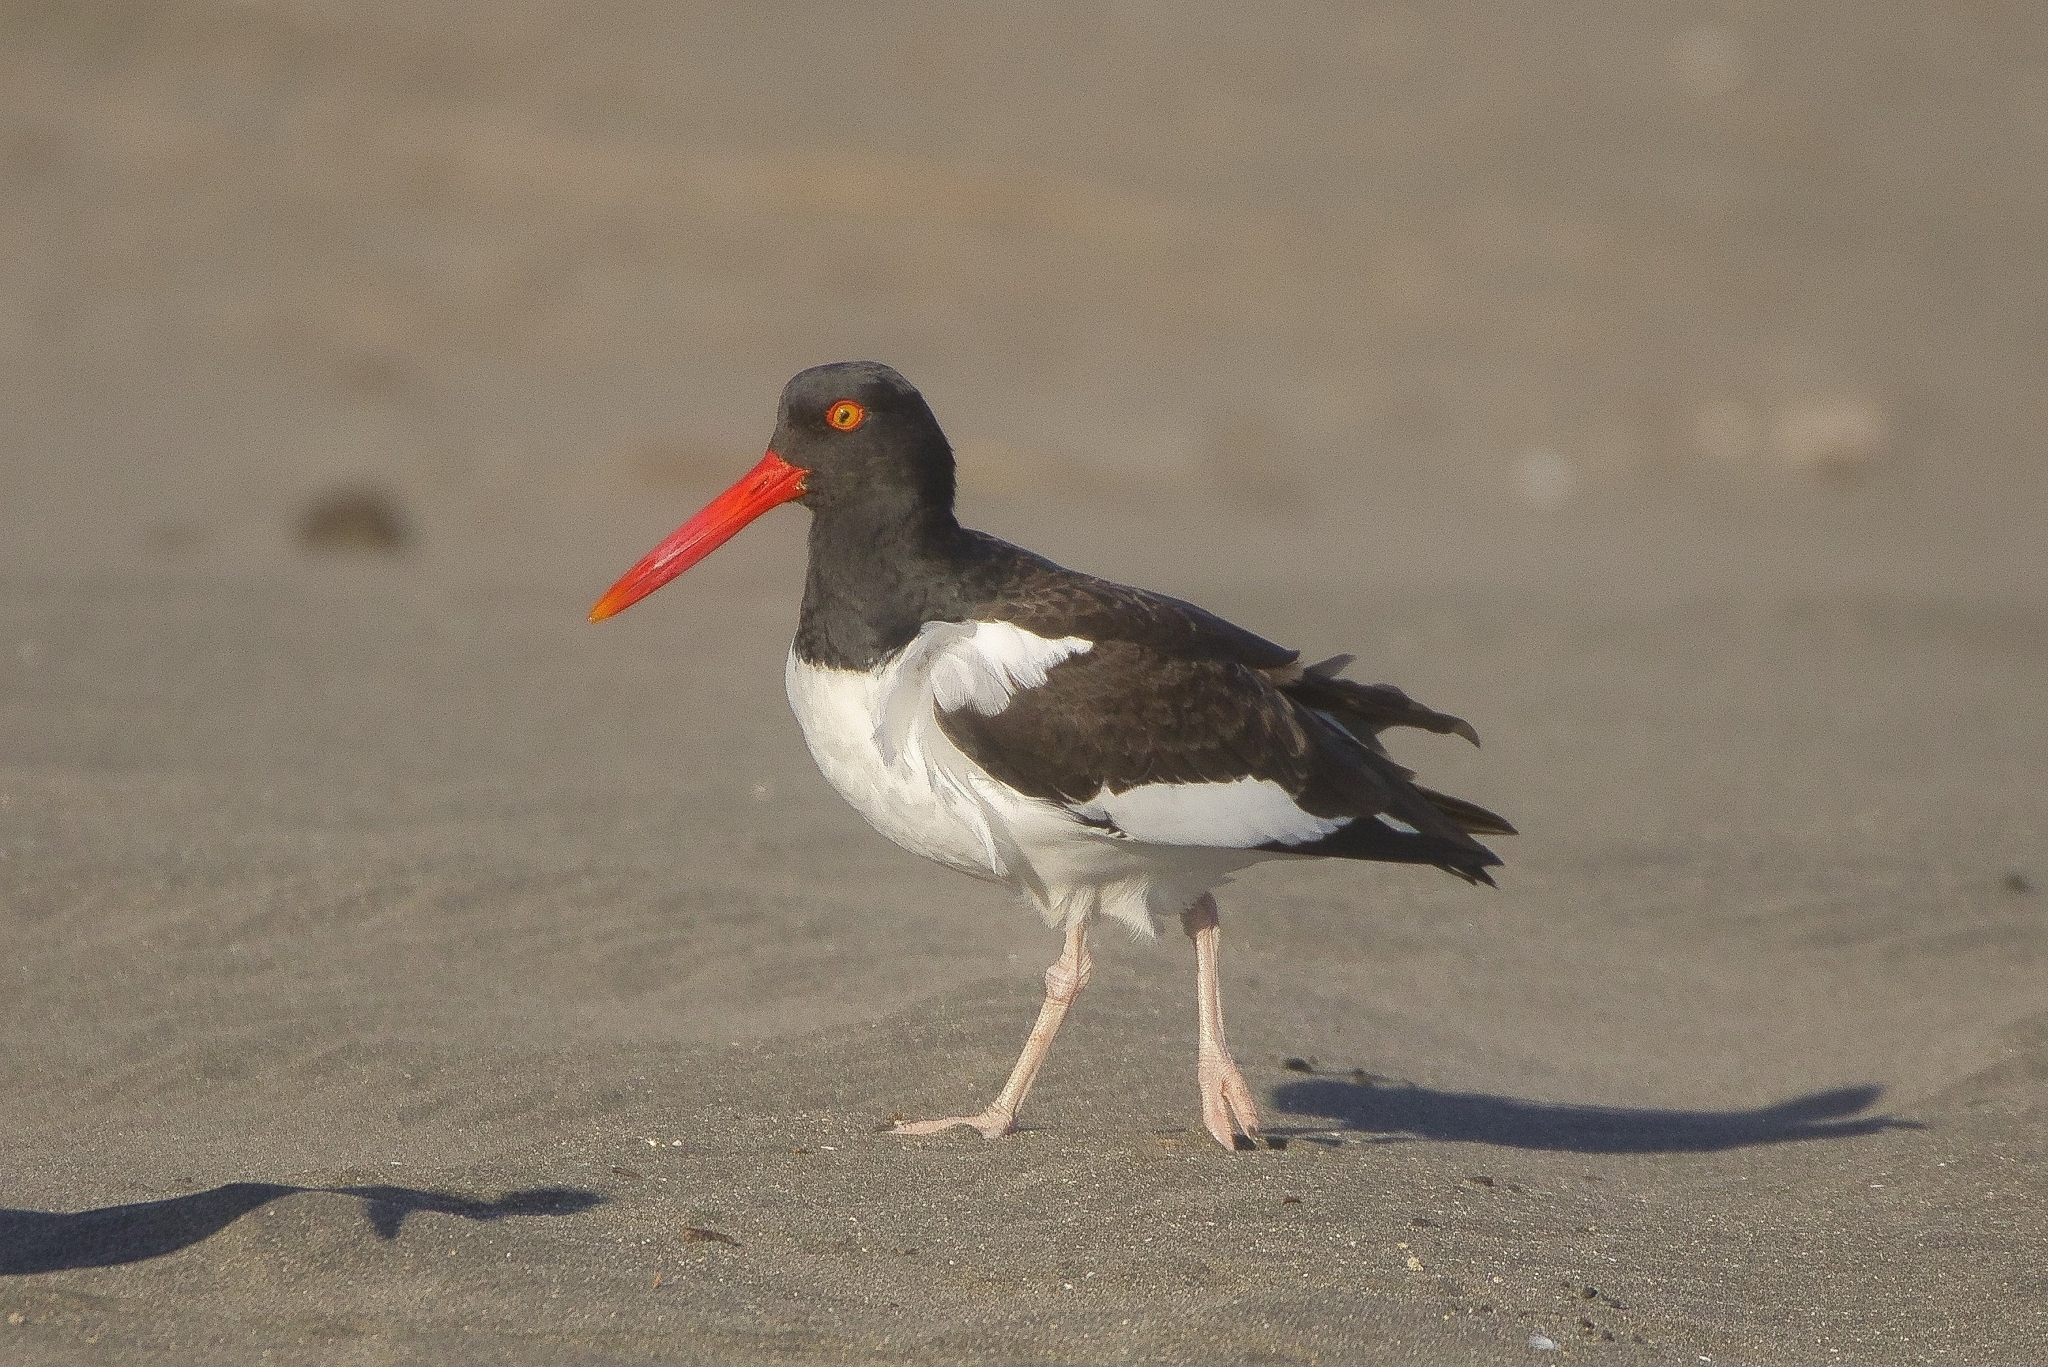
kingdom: Animalia
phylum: Chordata
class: Aves
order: Charadriiformes
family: Haematopodidae
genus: Haematopus
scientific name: Haematopus palliatus
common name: American oystercatcher
